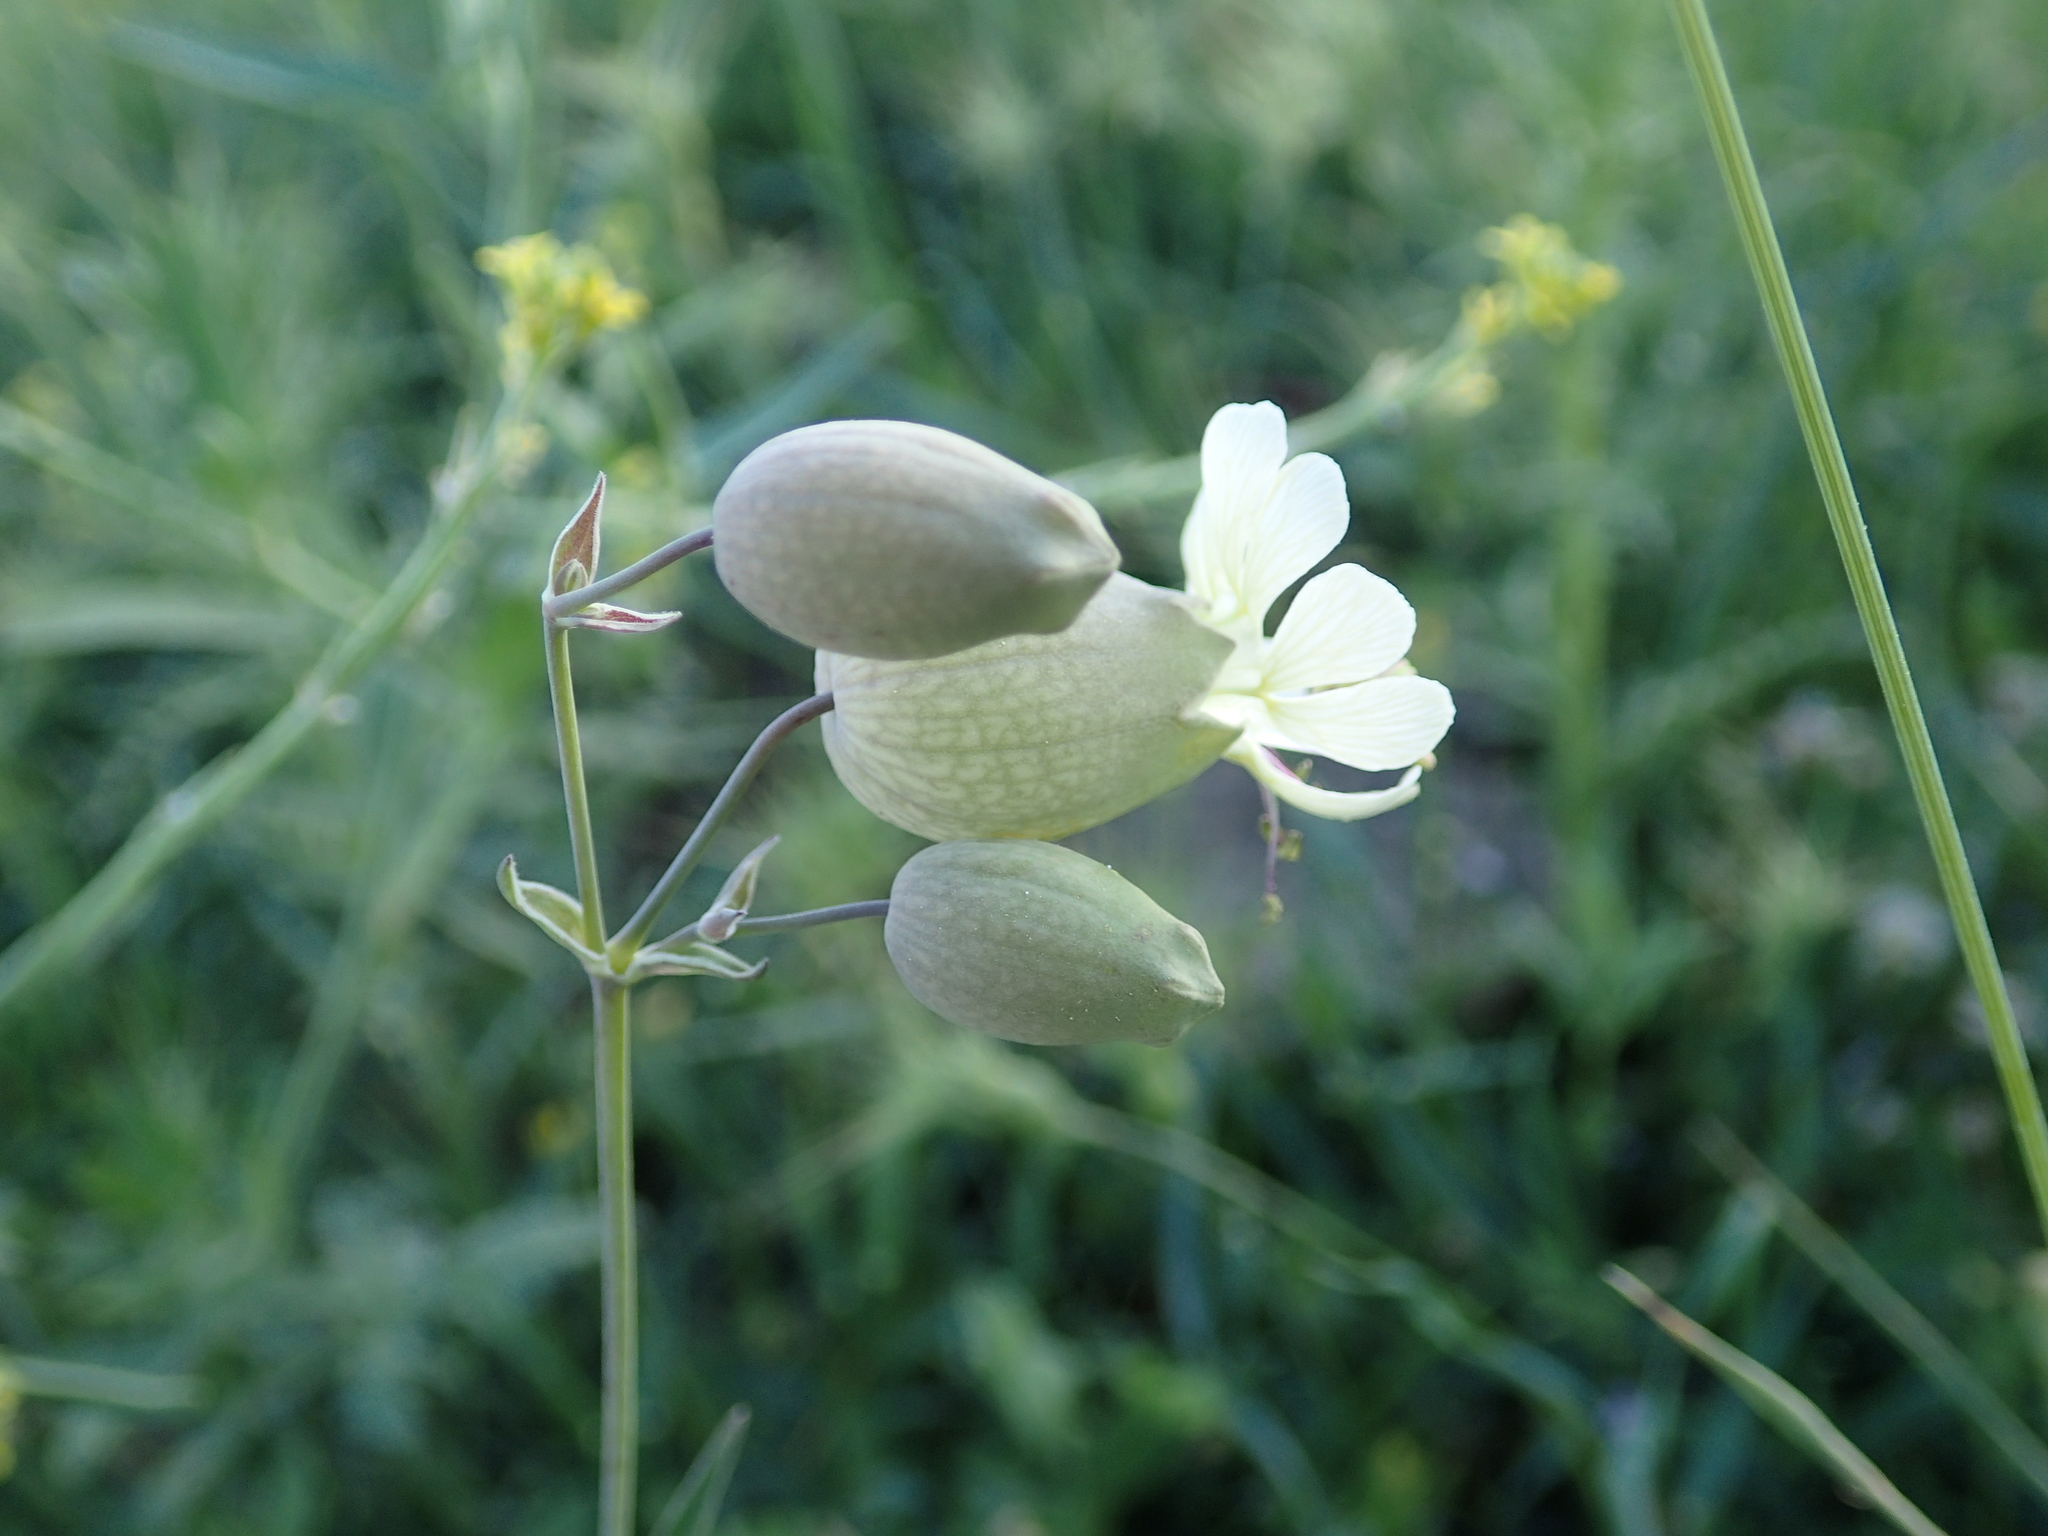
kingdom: Plantae
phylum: Tracheophyta
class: Magnoliopsida
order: Caryophyllales
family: Caryophyllaceae
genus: Silene
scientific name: Silene vulgaris
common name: Bladder campion
